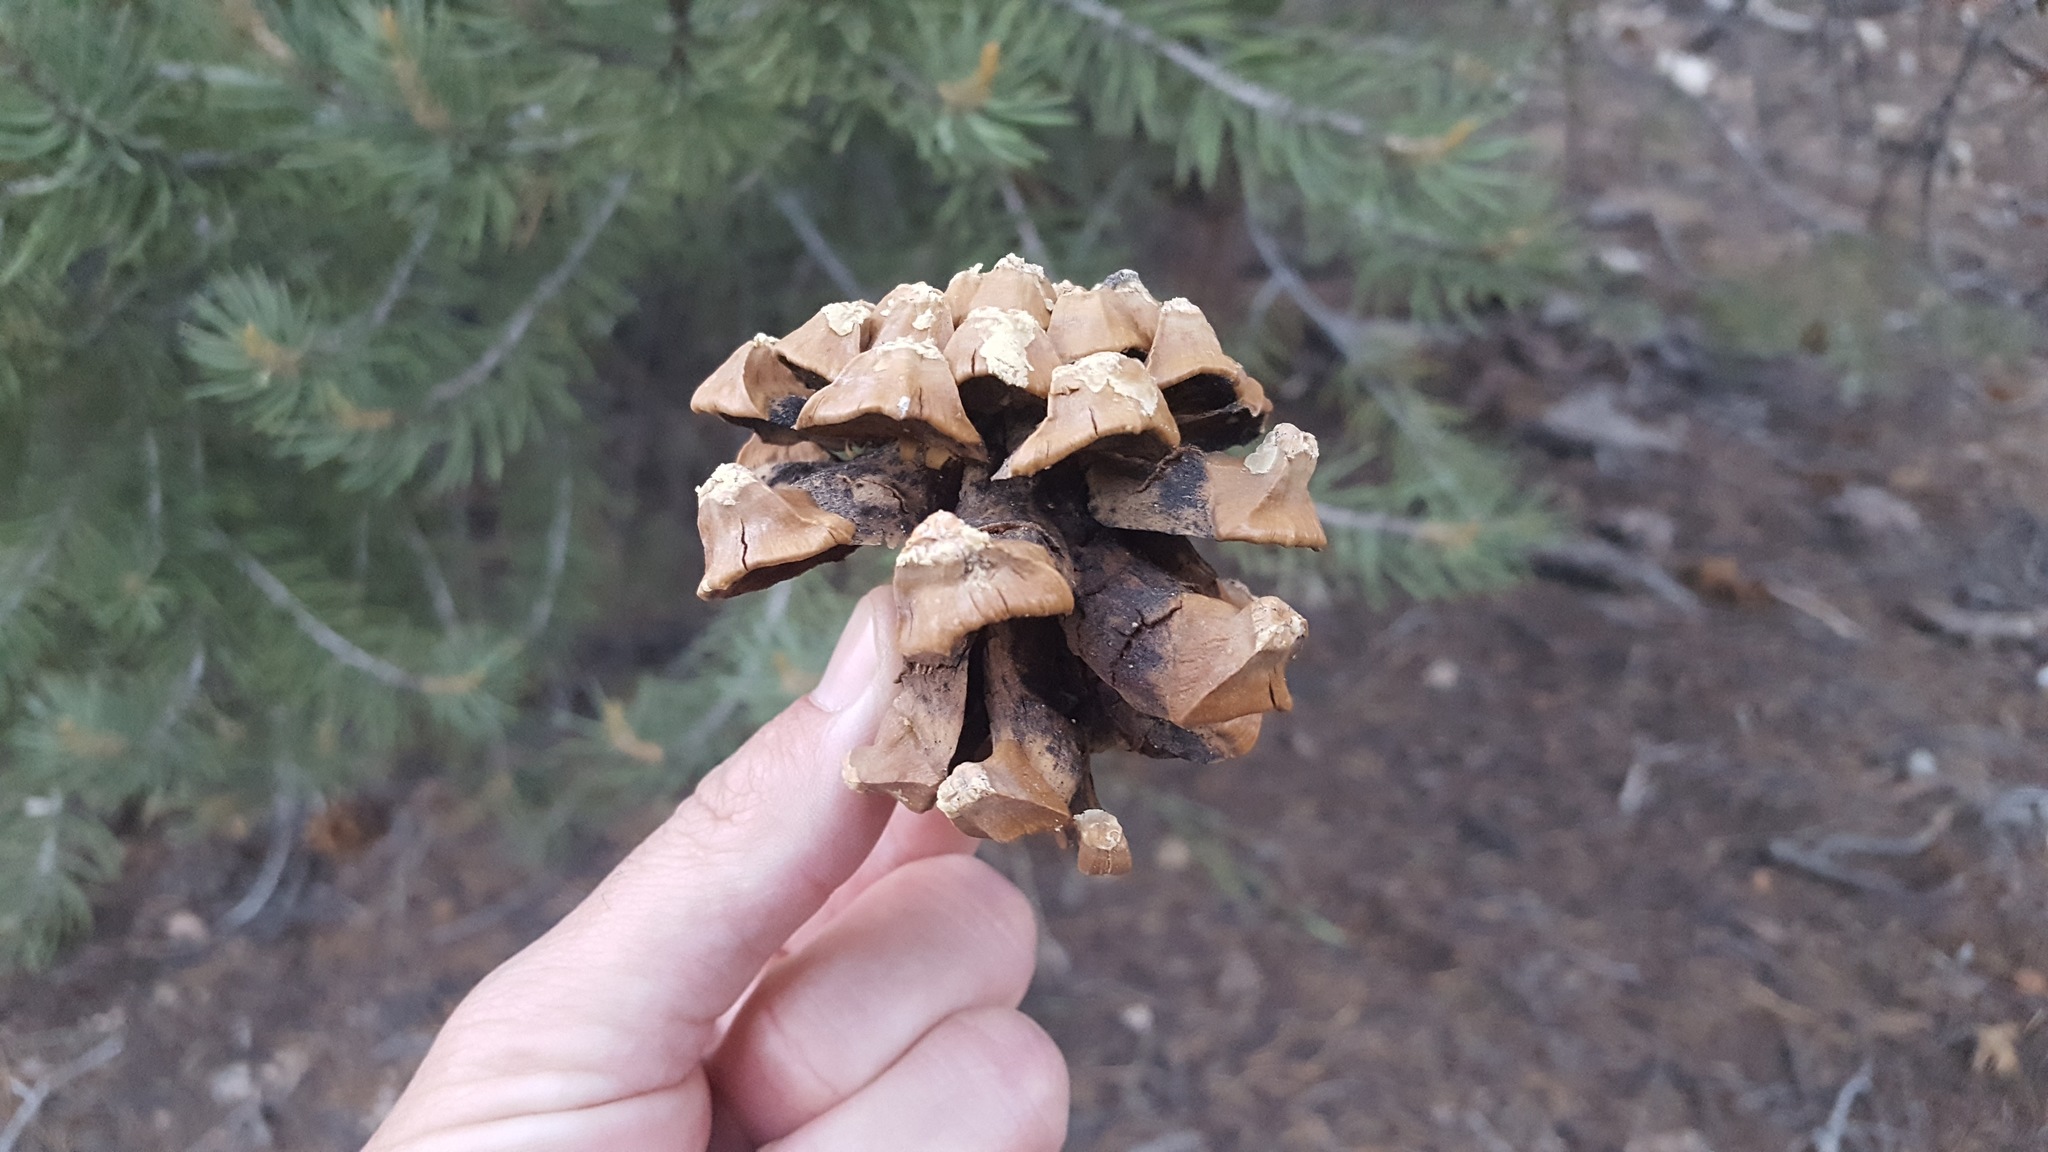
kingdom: Plantae
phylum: Tracheophyta
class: Pinopsida
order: Pinales
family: Pinaceae
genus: Pinus
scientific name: Pinus monophylla
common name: One-leaved nut pine
